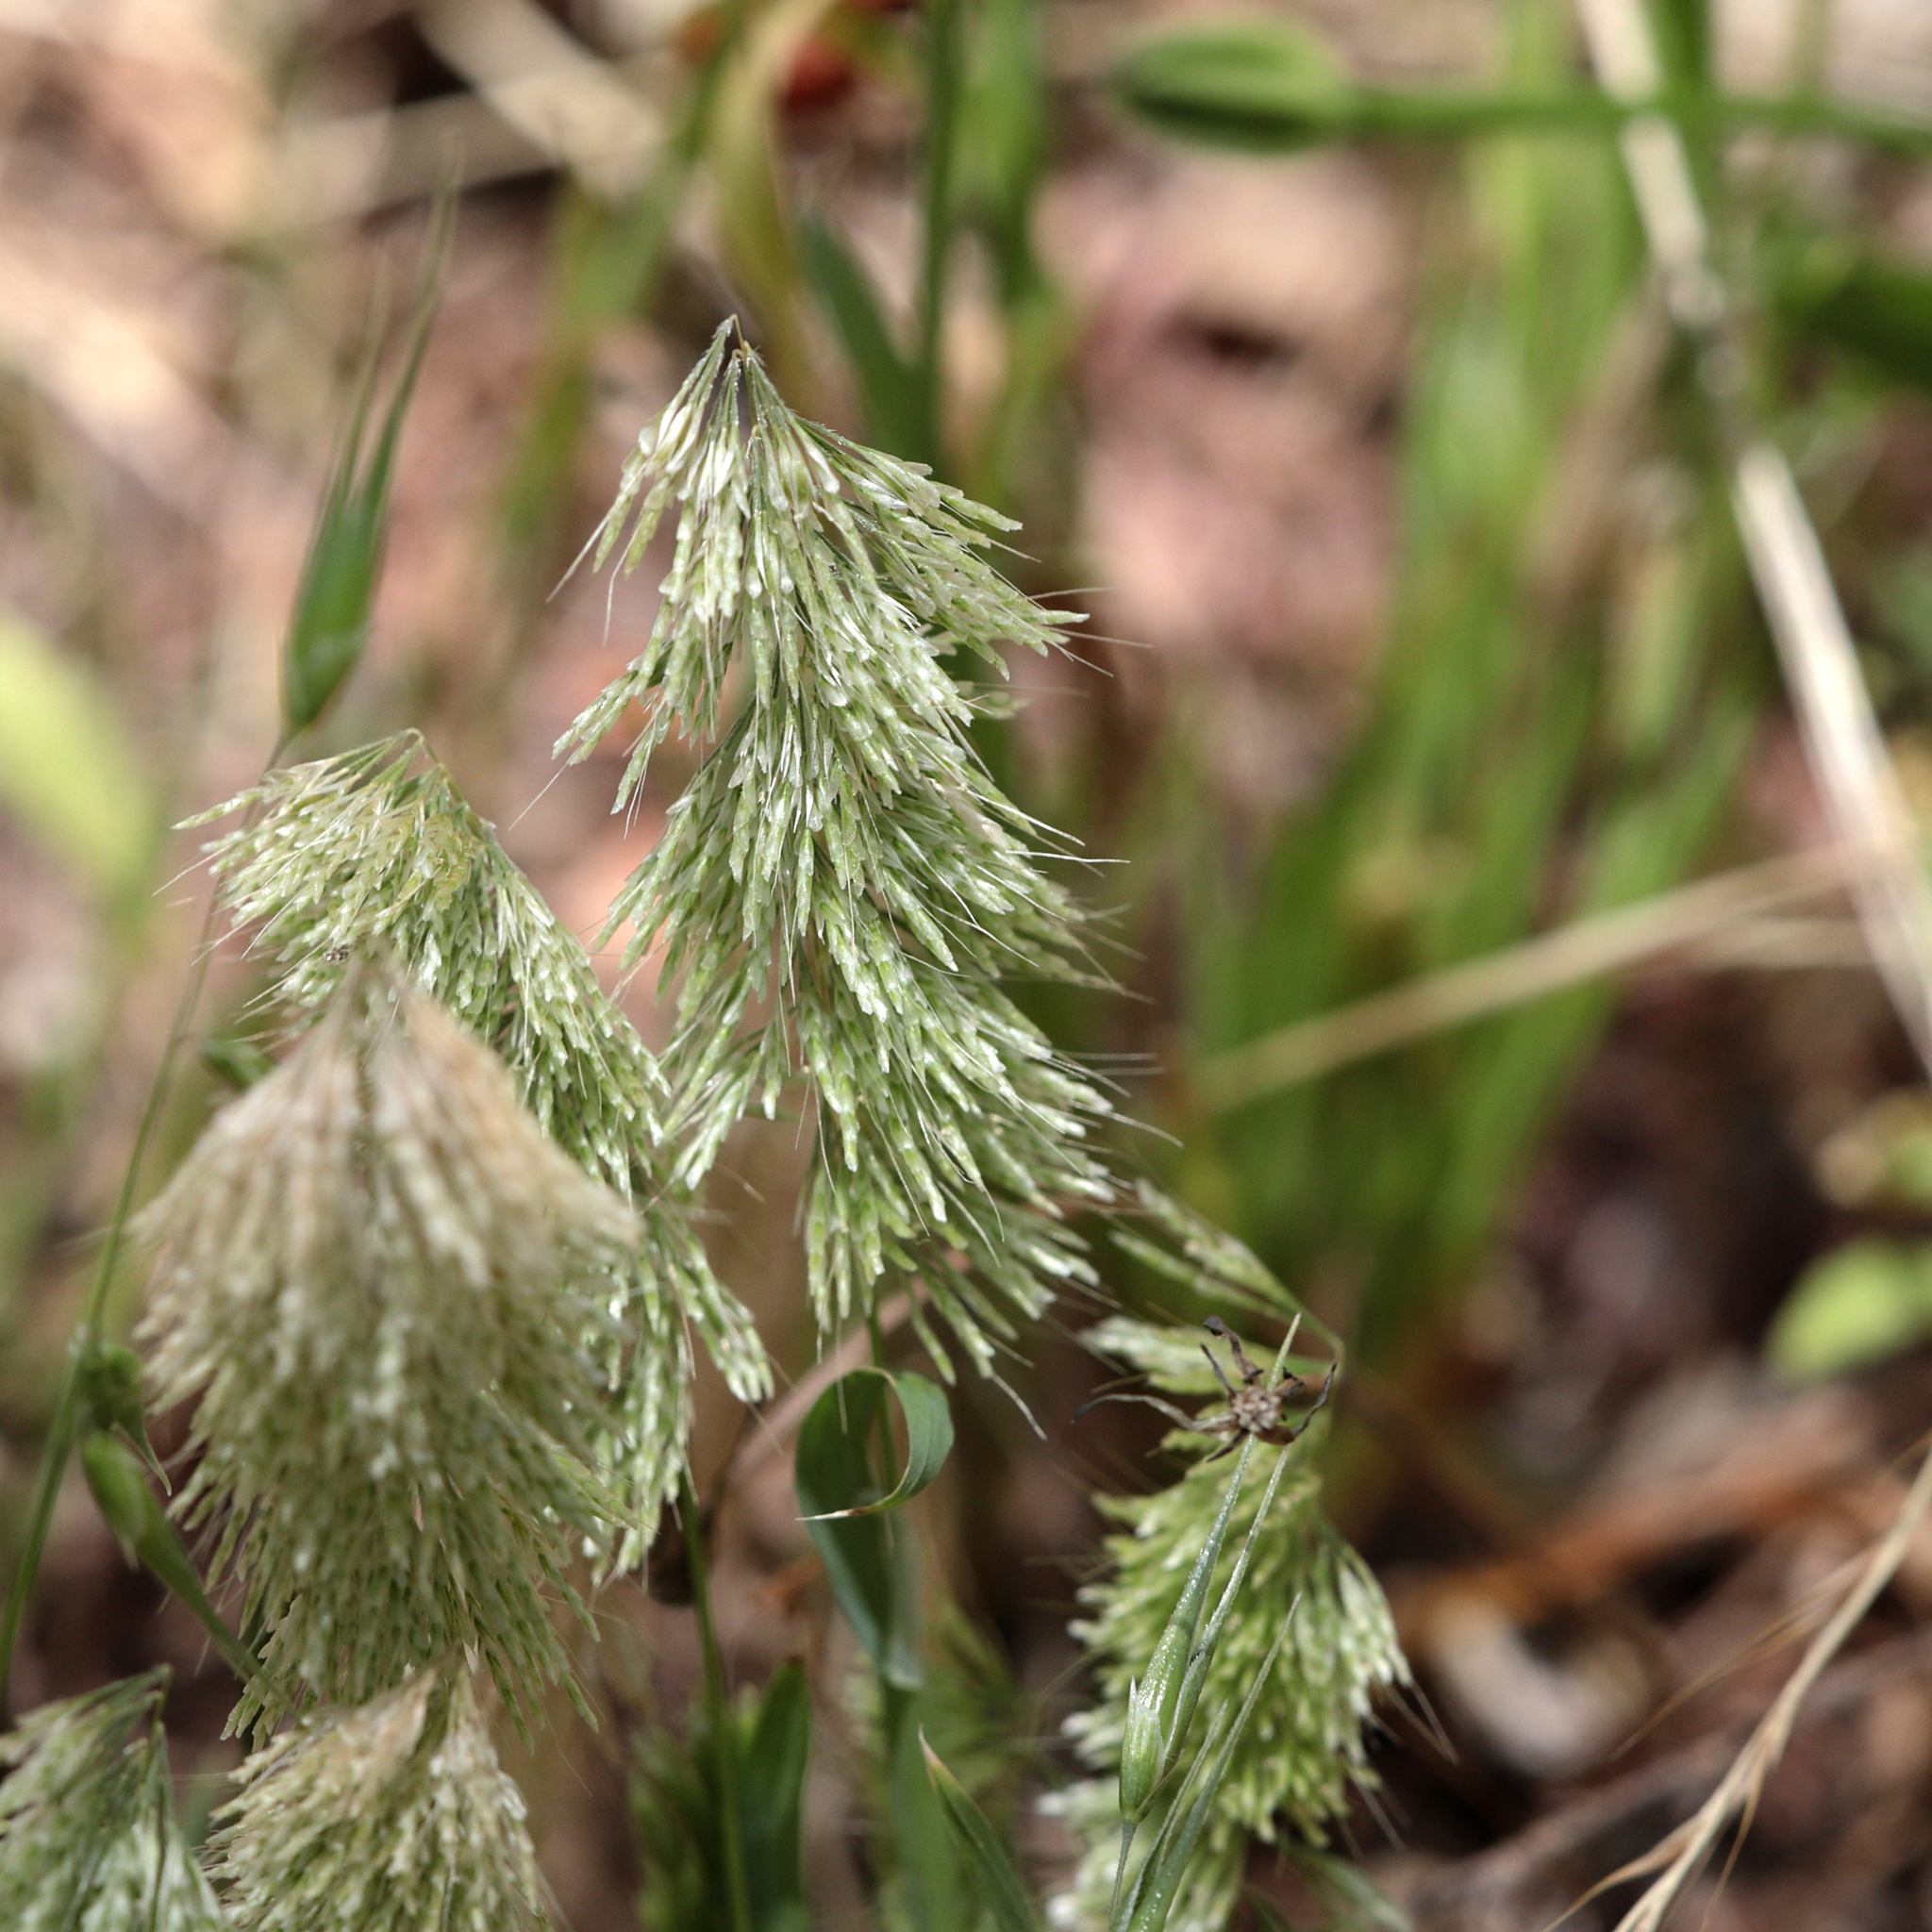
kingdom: Plantae
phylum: Tracheophyta
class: Liliopsida
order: Poales
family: Poaceae
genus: Lamarckia
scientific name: Lamarckia aurea
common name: Golden dog's-tail
